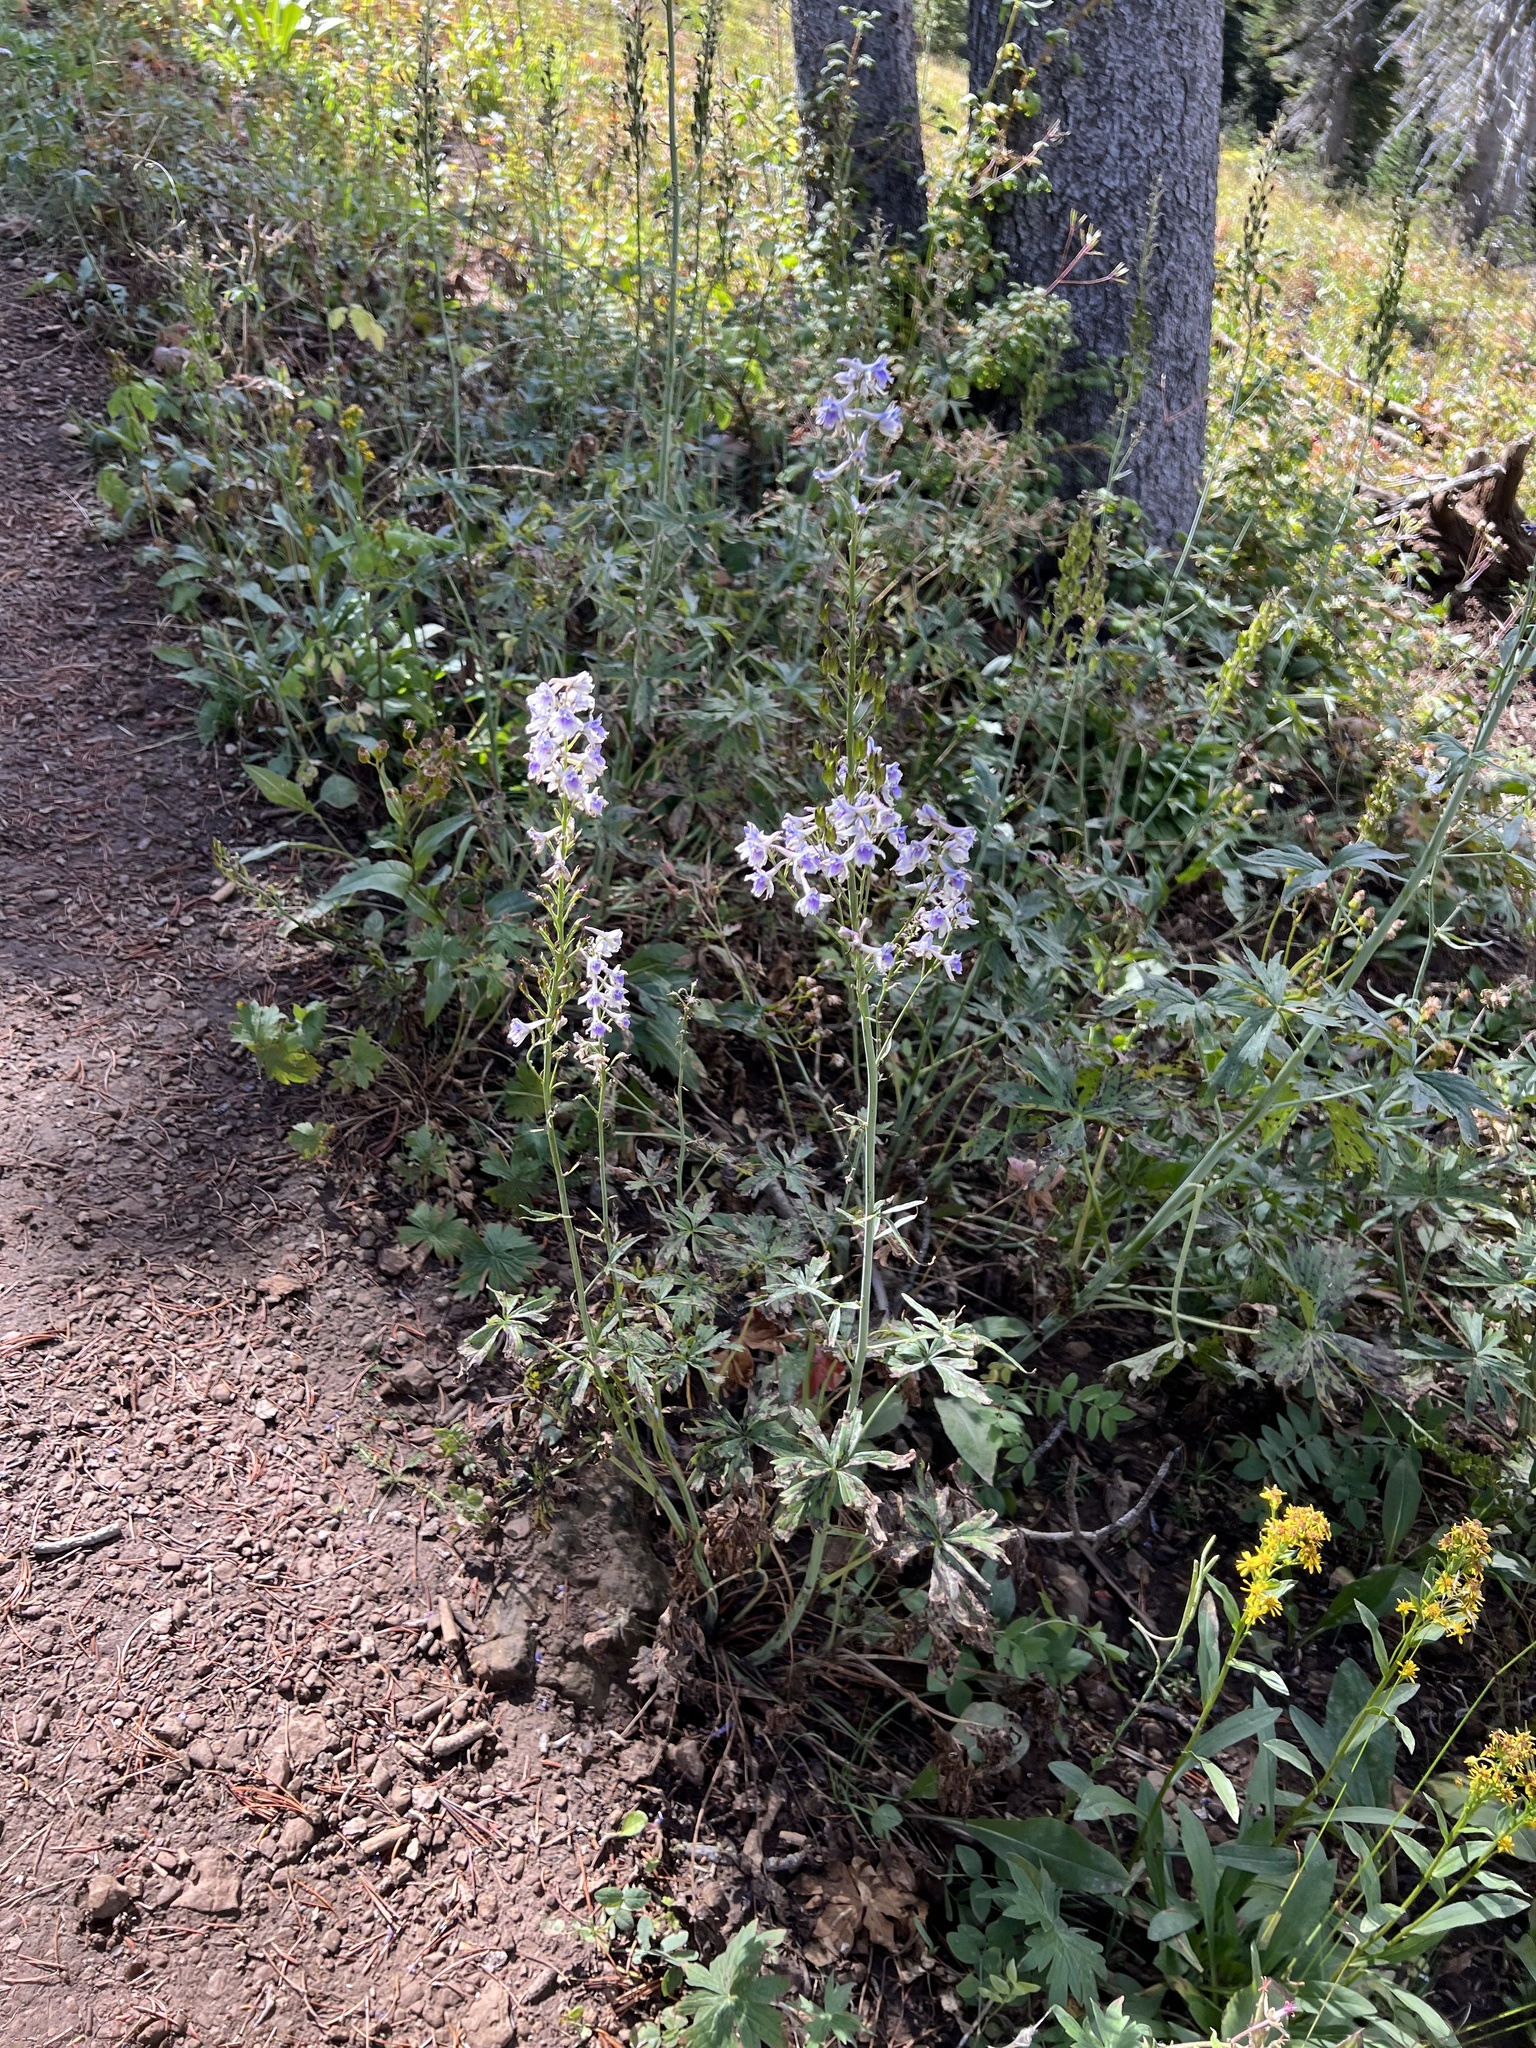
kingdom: Plantae
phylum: Tracheophyta
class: Magnoliopsida
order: Ranunculales
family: Ranunculaceae
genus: Delphinium
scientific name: Delphinium occidentale
